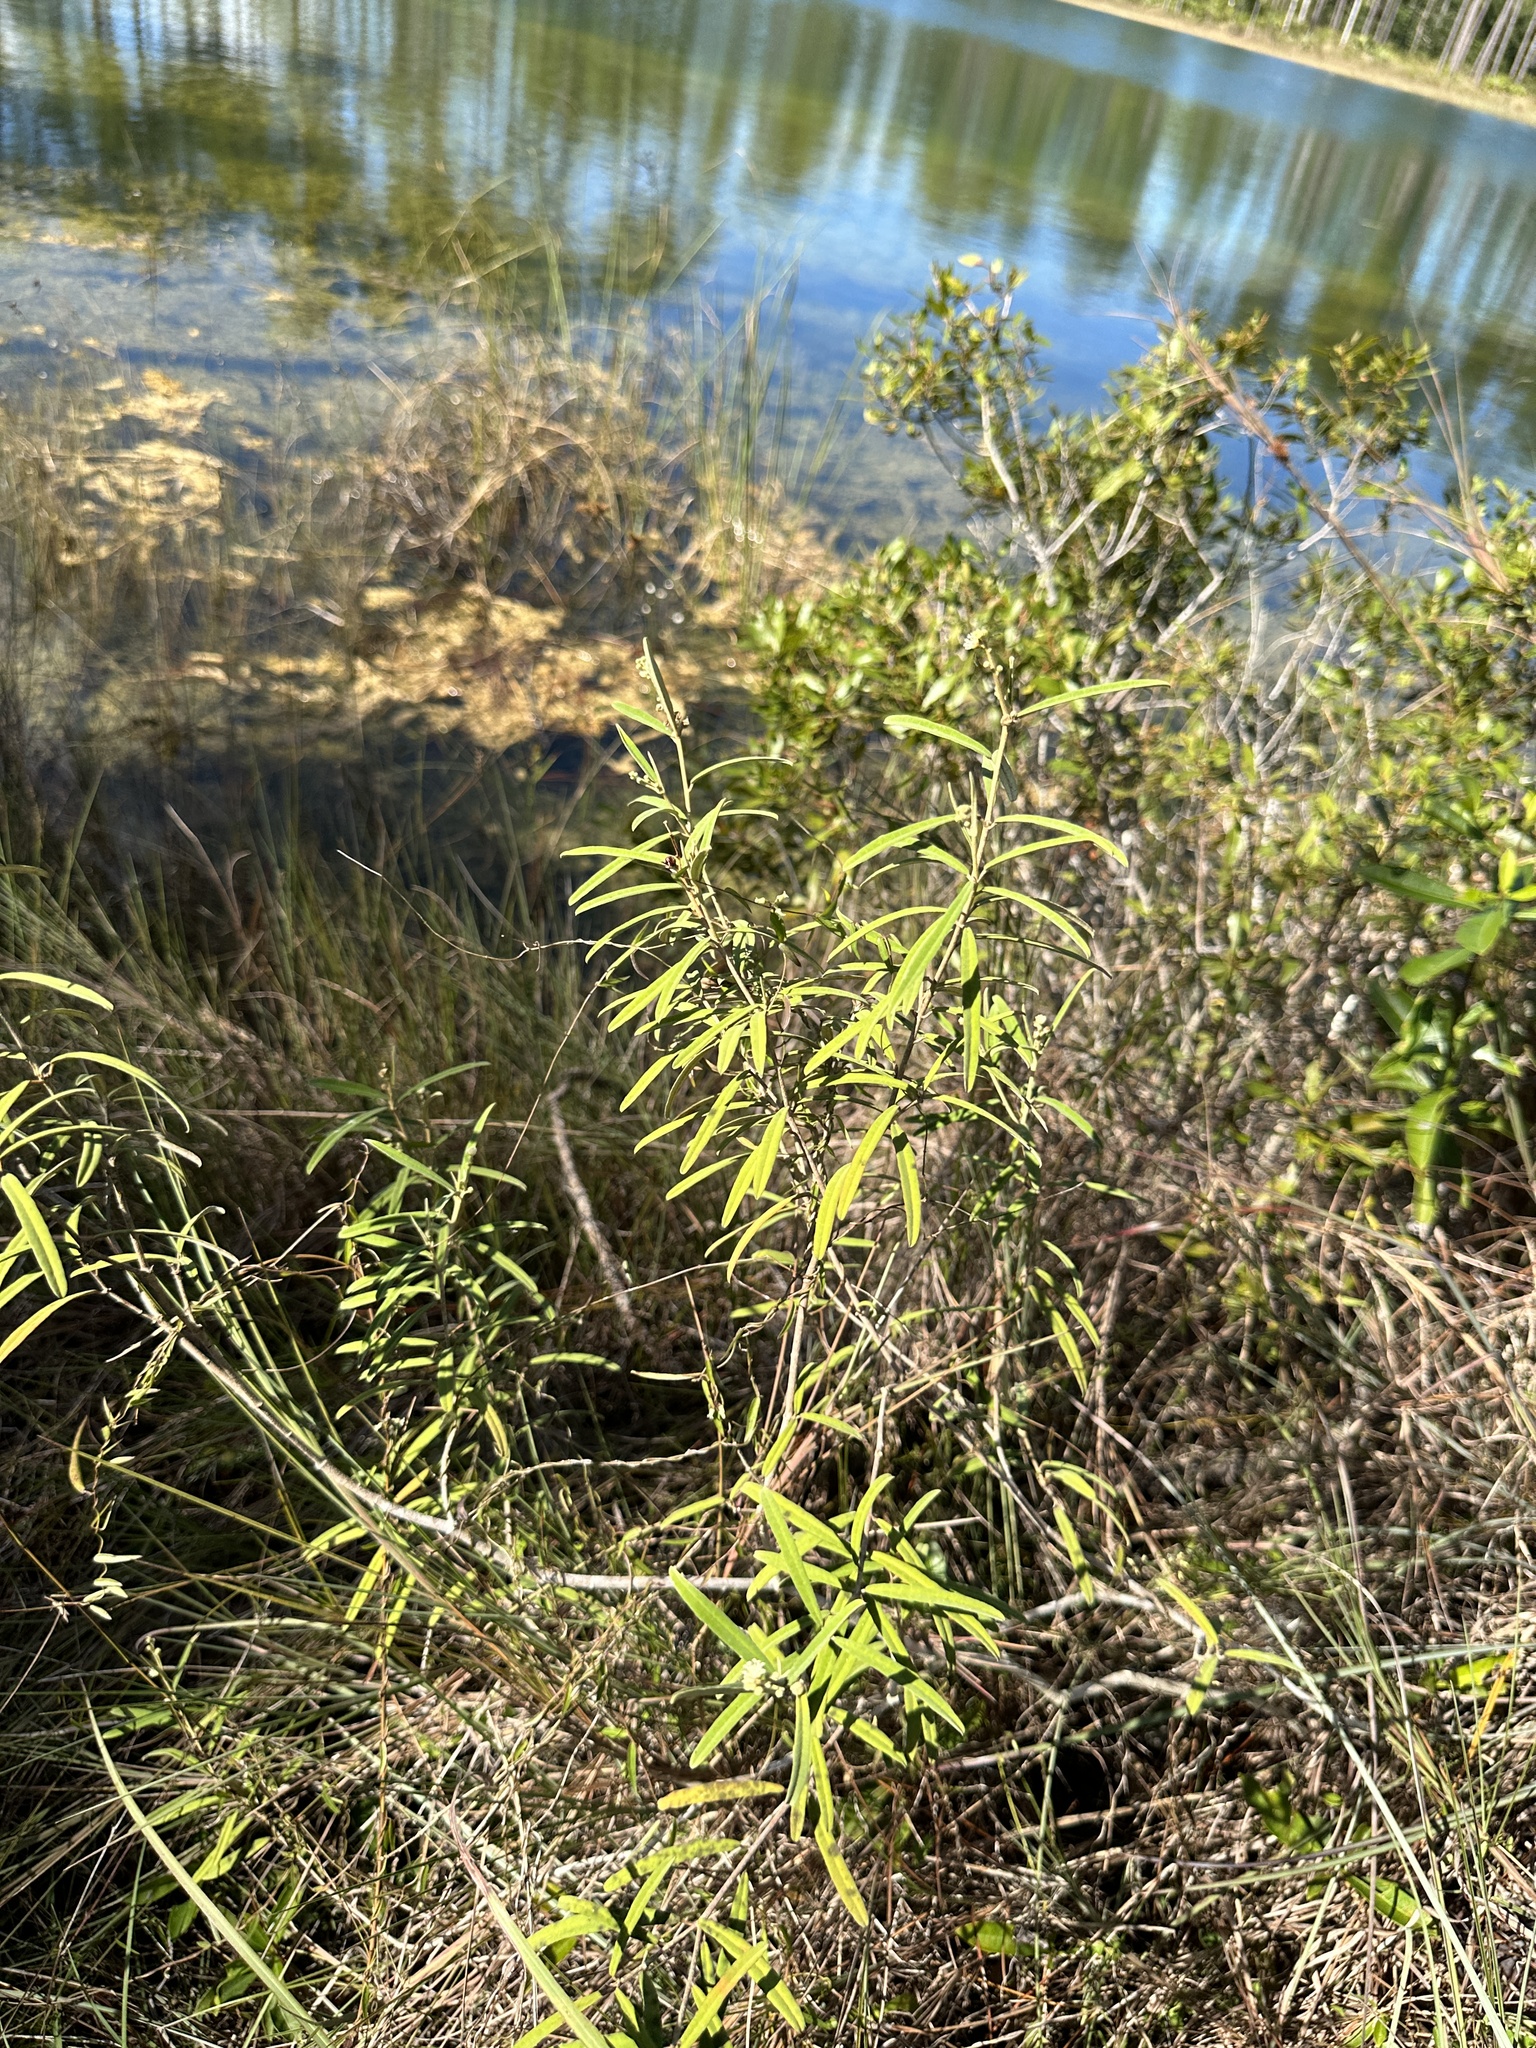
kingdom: Plantae
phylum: Tracheophyta
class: Magnoliopsida
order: Malpighiales
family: Euphorbiaceae
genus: Croton
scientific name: Croton linearis
